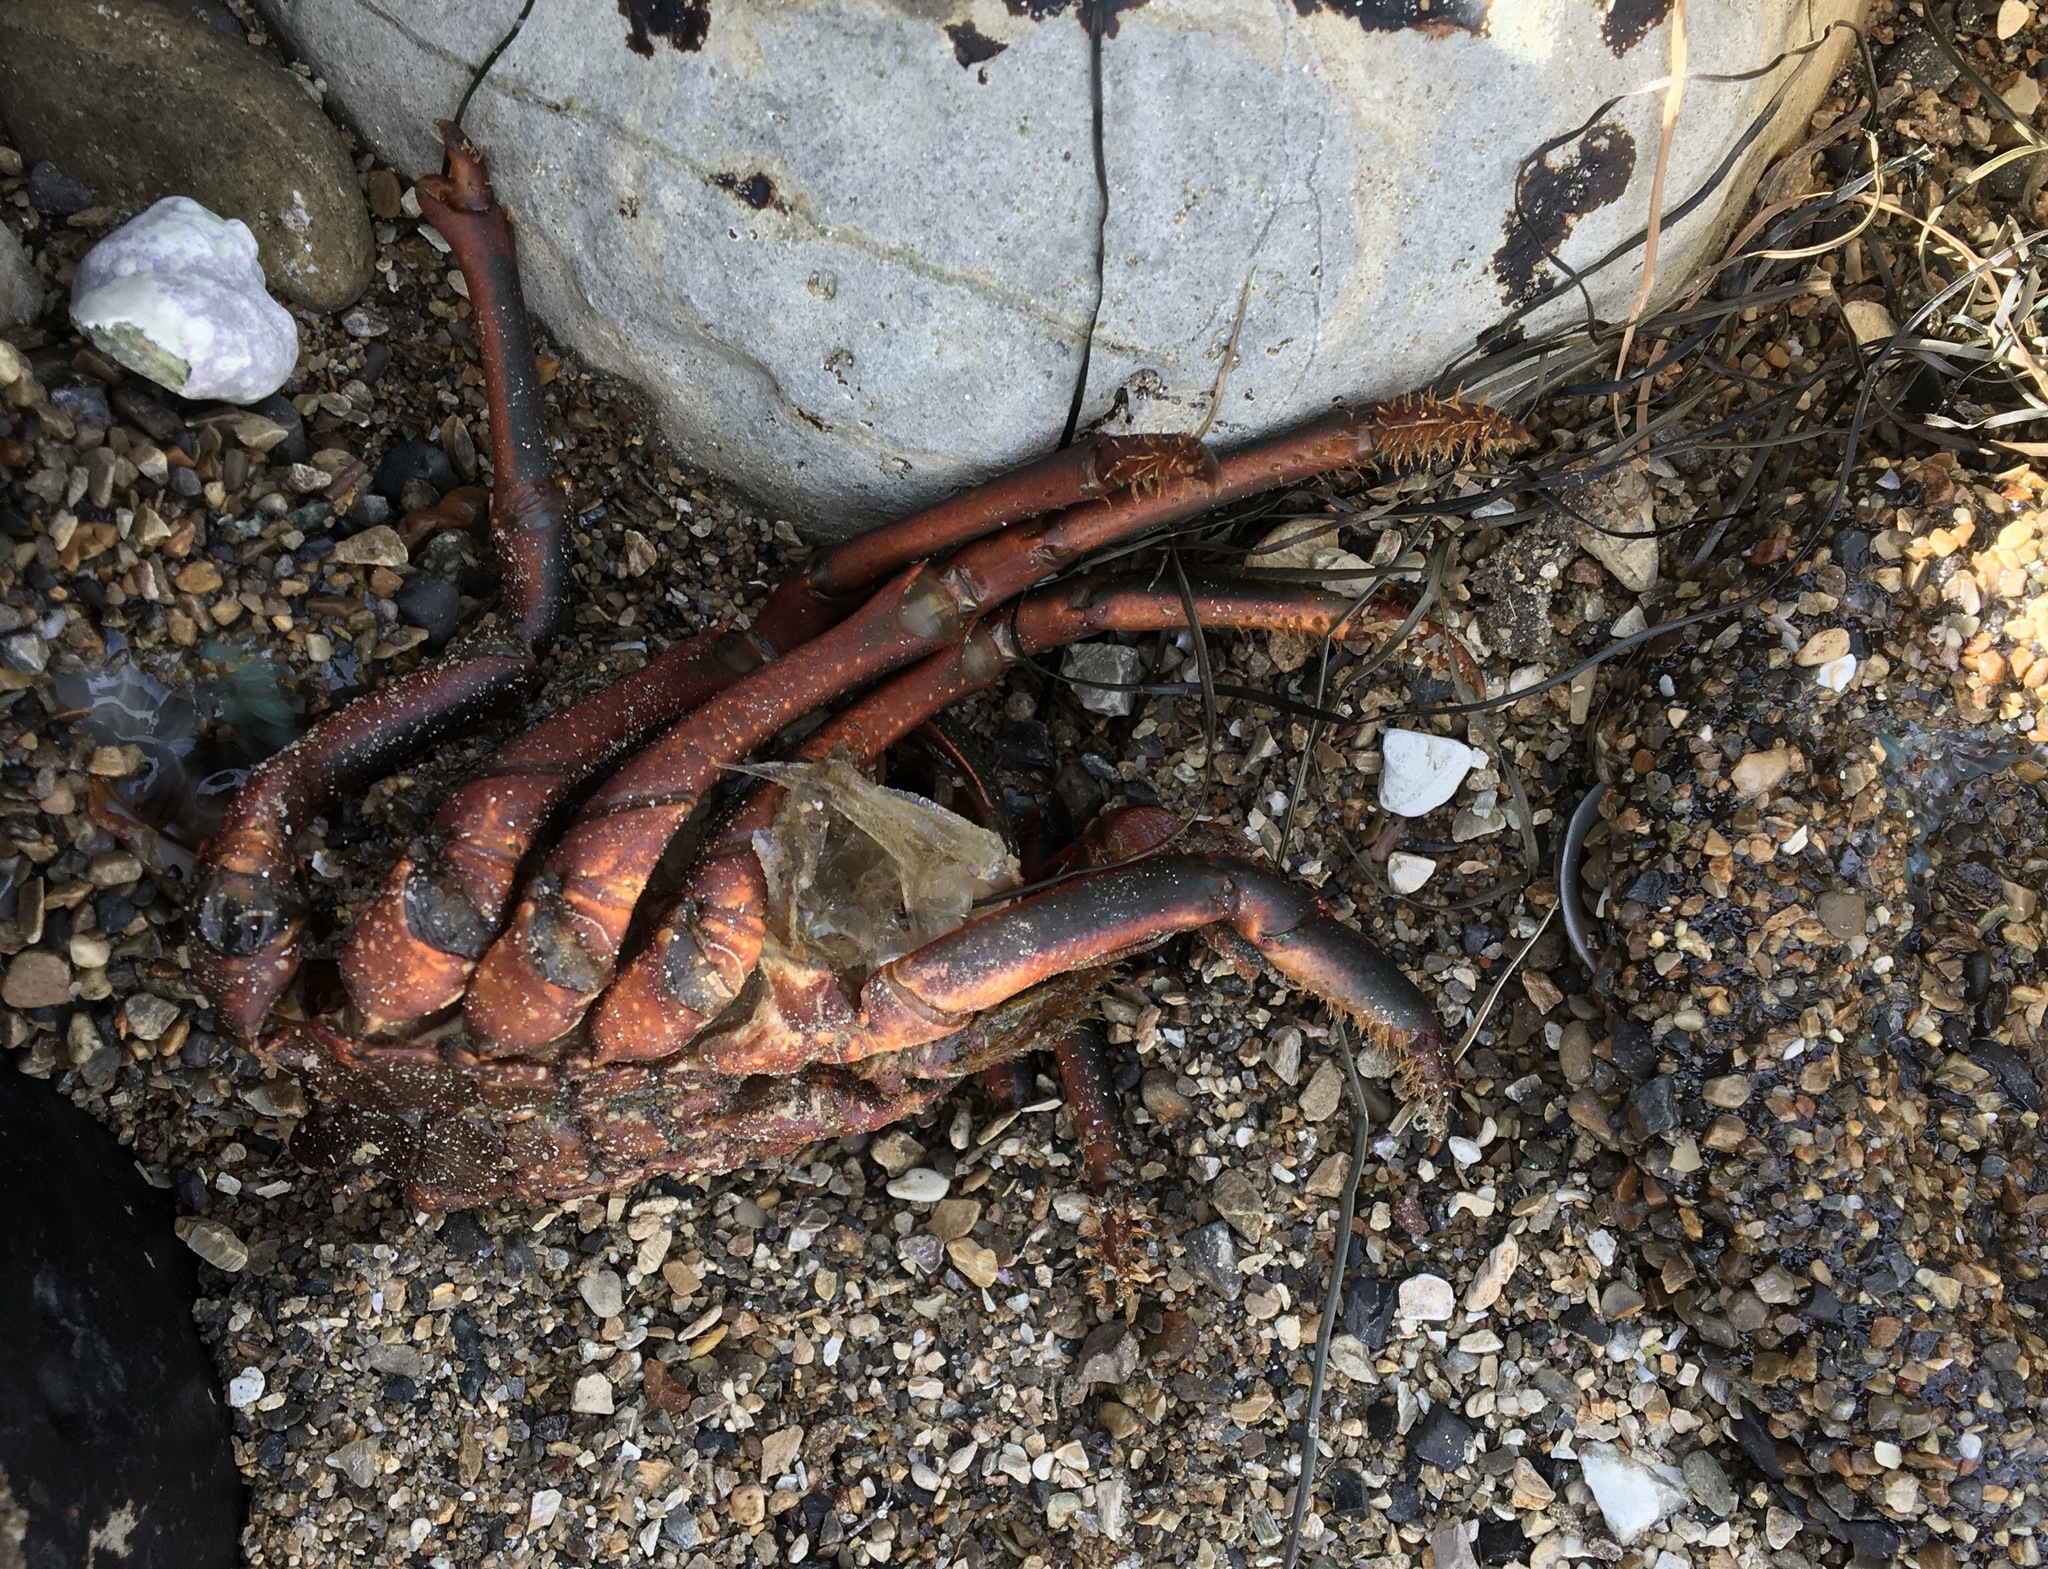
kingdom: Animalia
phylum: Arthropoda
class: Malacostraca
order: Decapoda
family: Palinuridae
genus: Panulirus
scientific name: Panulirus interruptus
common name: California spiny lobster
